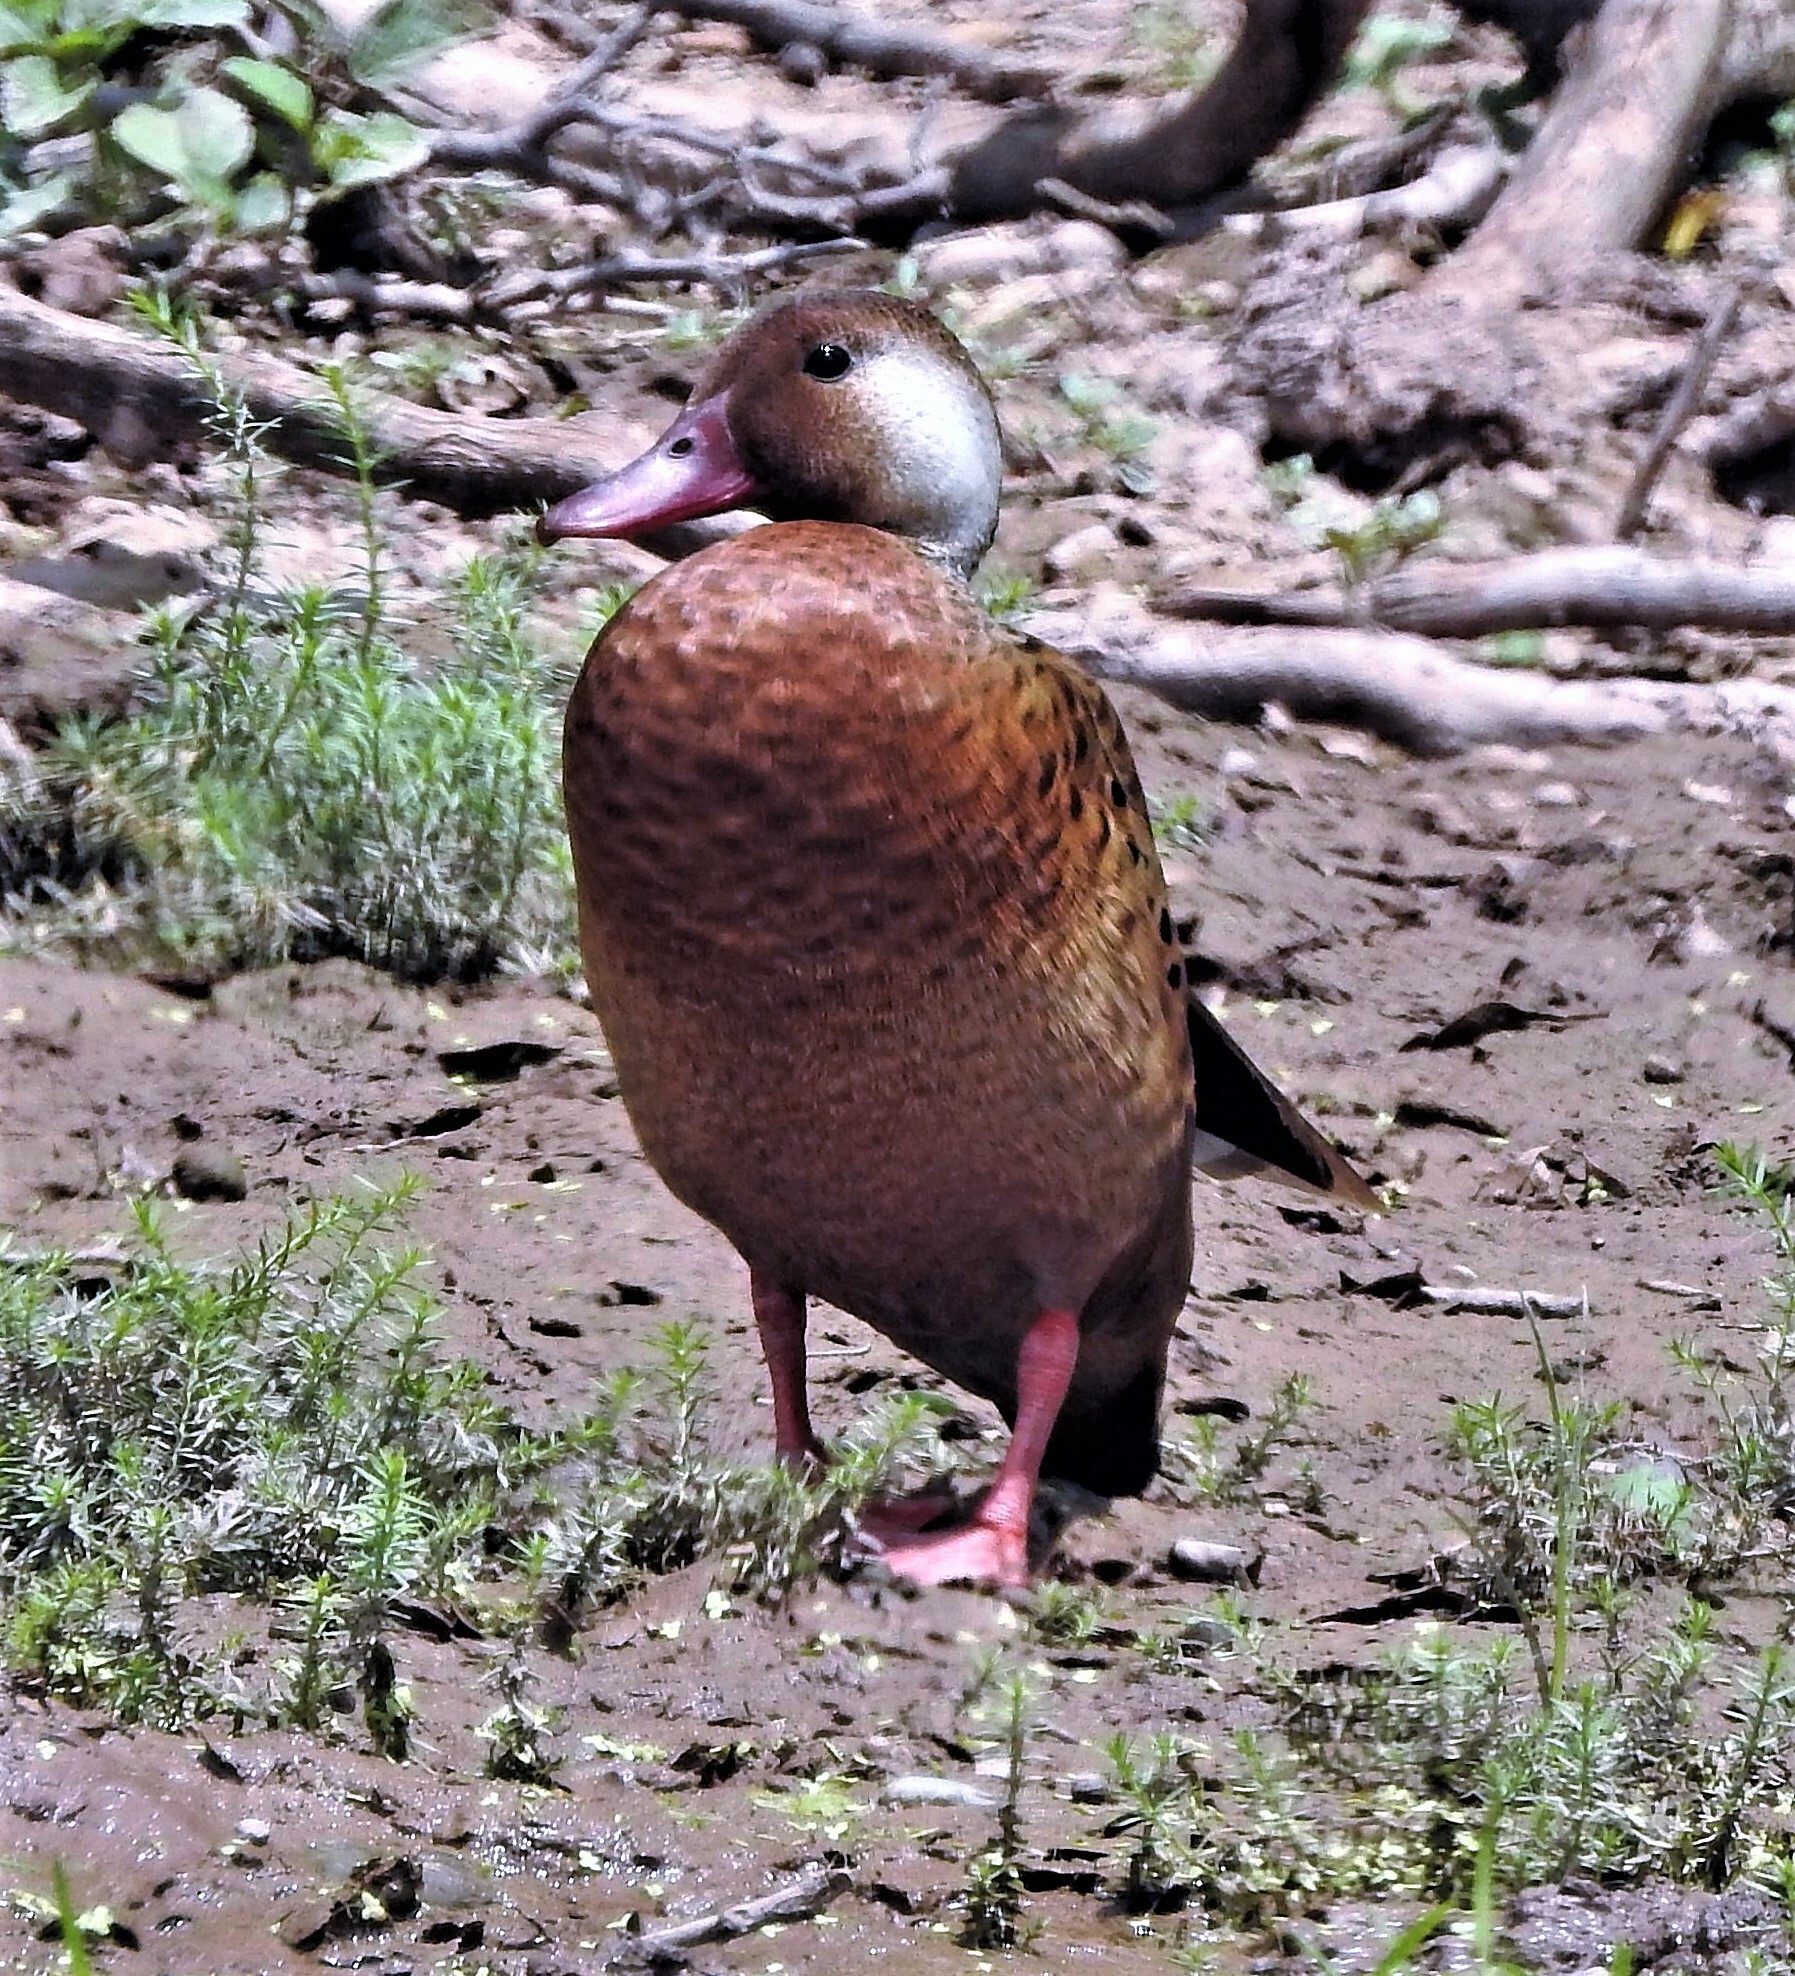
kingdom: Animalia
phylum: Chordata
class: Aves
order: Anseriformes
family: Anatidae
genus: Amazonetta
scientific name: Amazonetta brasiliensis
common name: Brazilian teal
